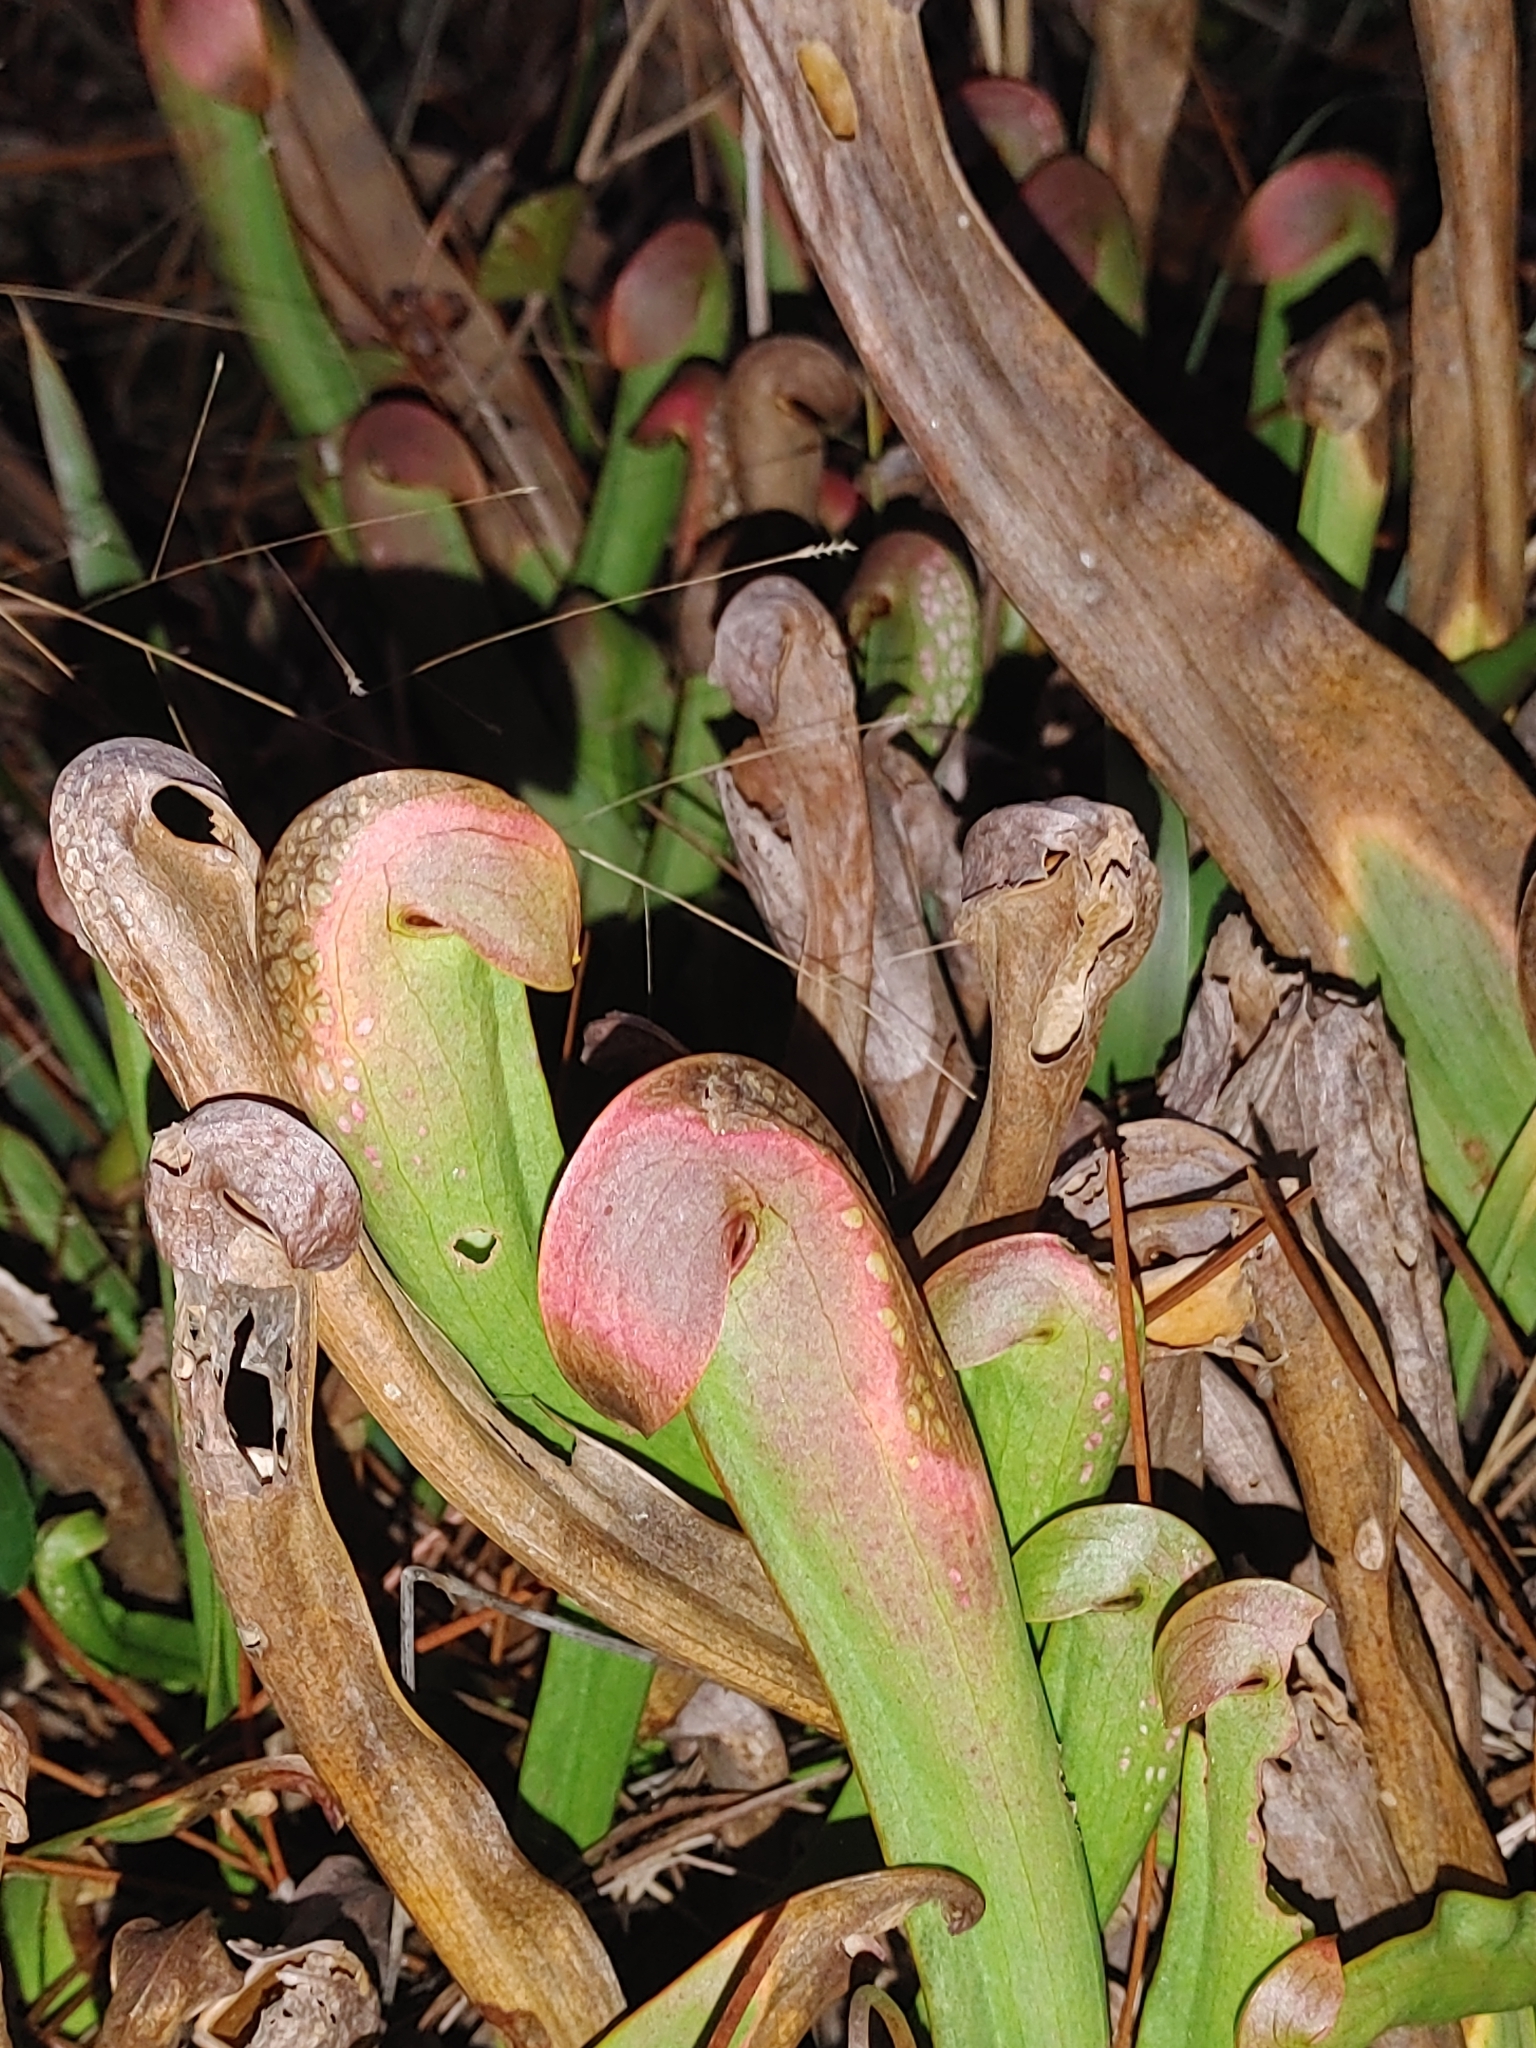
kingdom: Plantae
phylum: Tracheophyta
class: Magnoliopsida
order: Ericales
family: Sarraceniaceae
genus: Sarracenia
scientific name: Sarracenia minor
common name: Rainhat-trumpet
